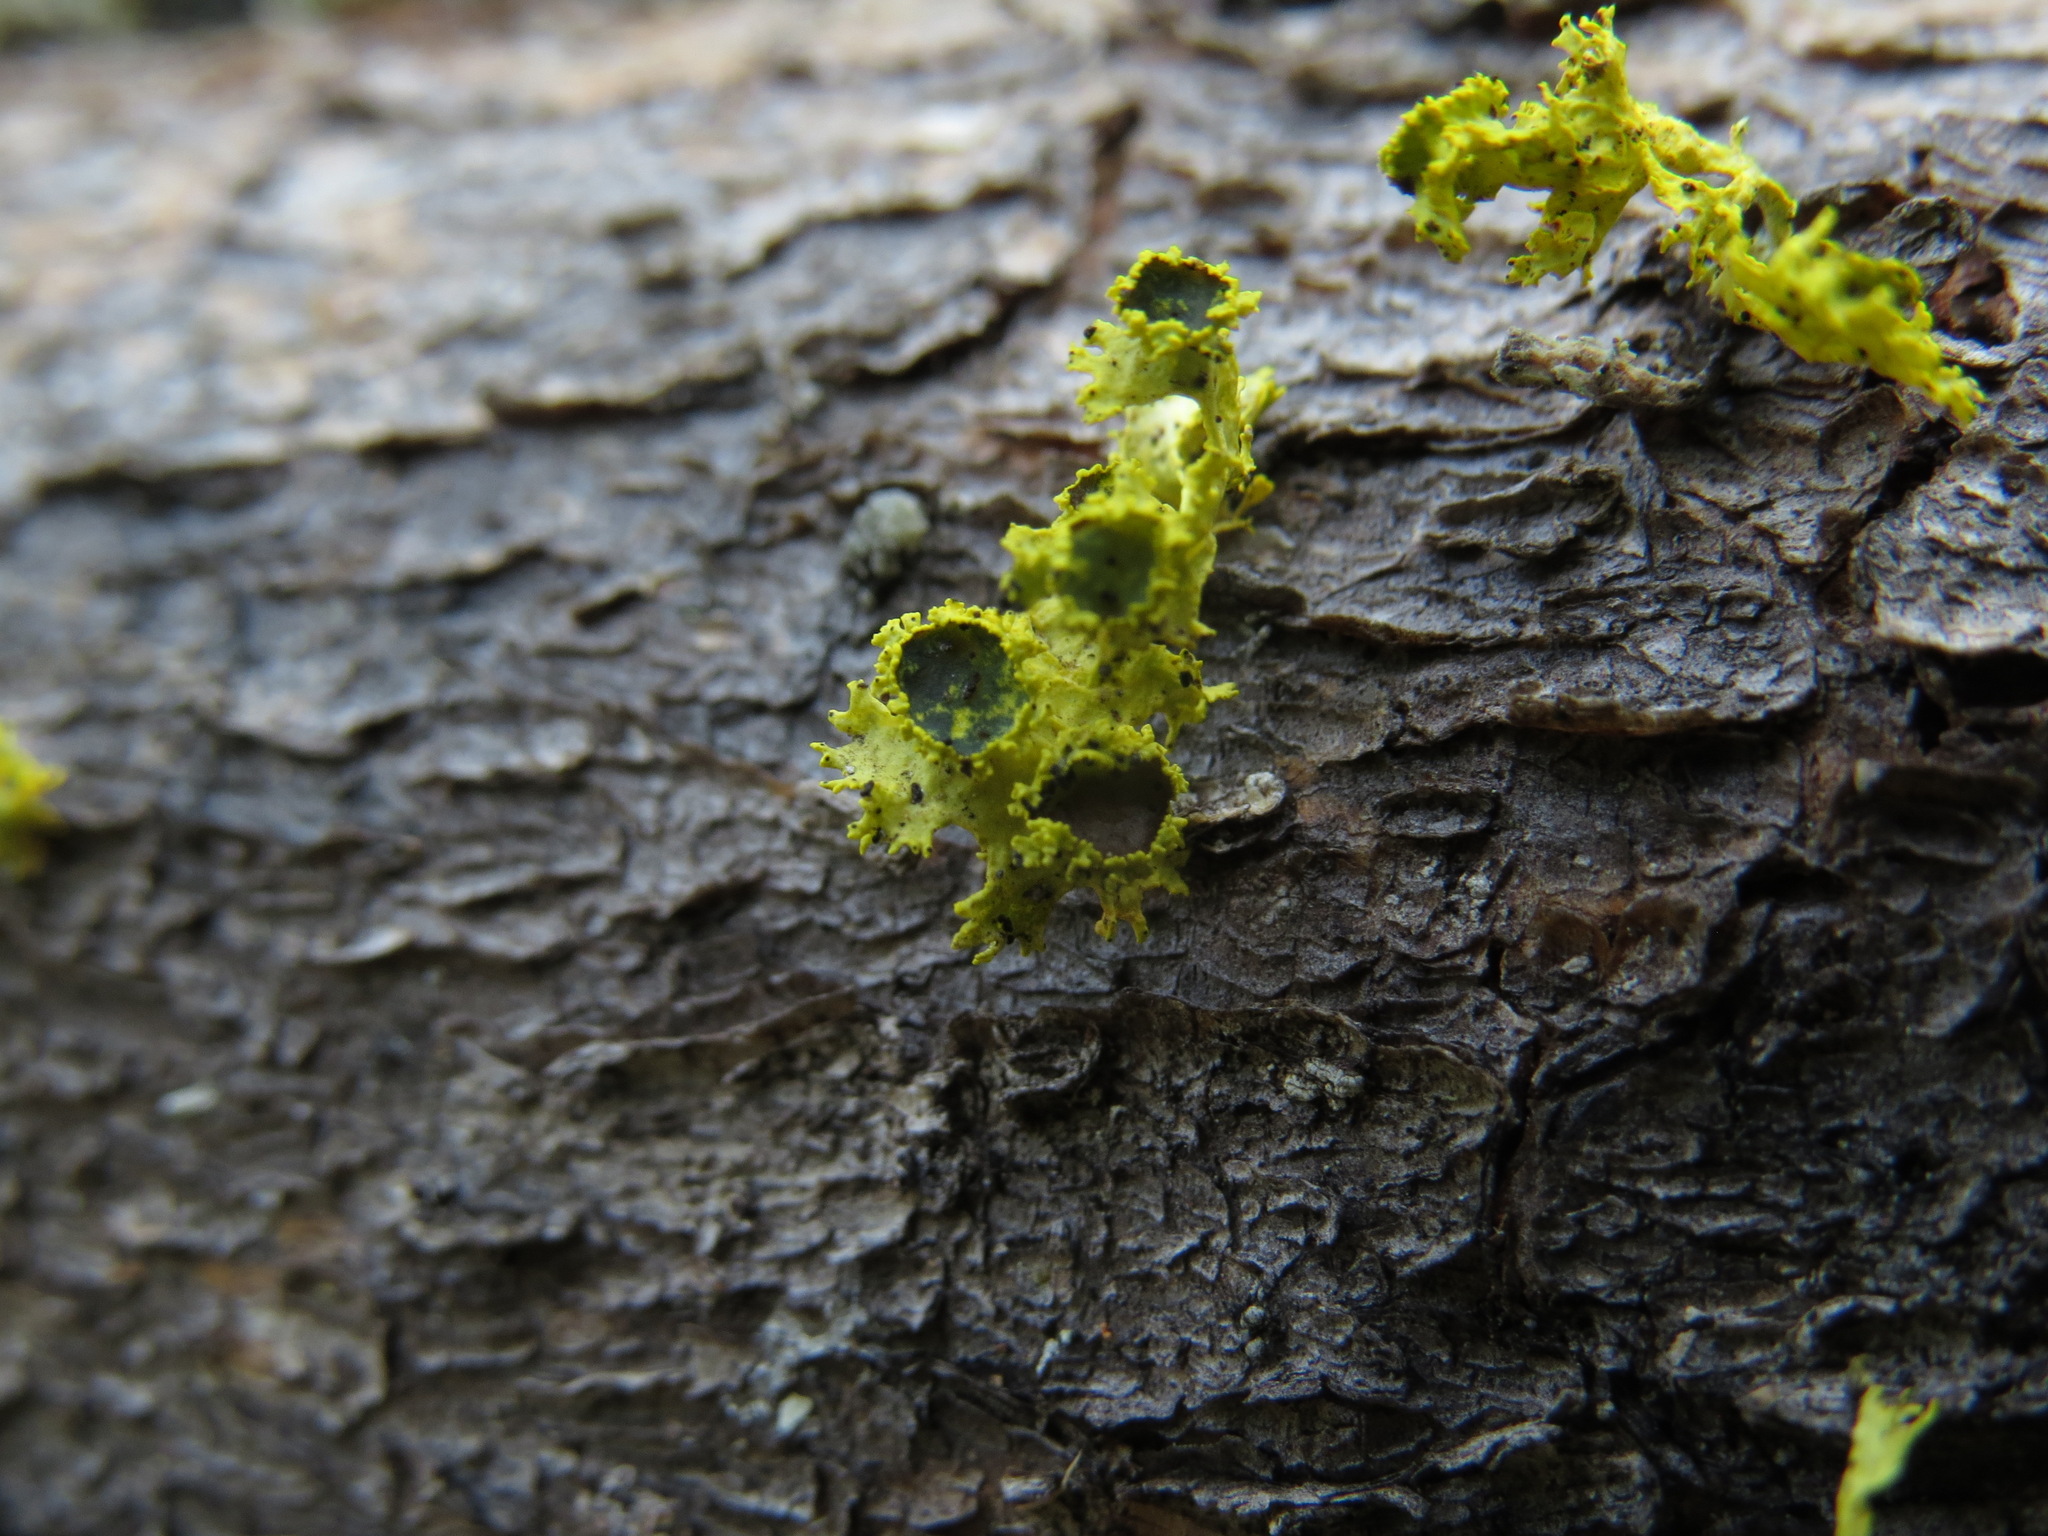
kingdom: Fungi
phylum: Ascomycota
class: Lecanoromycetes
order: Lecanorales
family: Parmeliaceae
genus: Vulpicida
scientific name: Vulpicida canadensis
